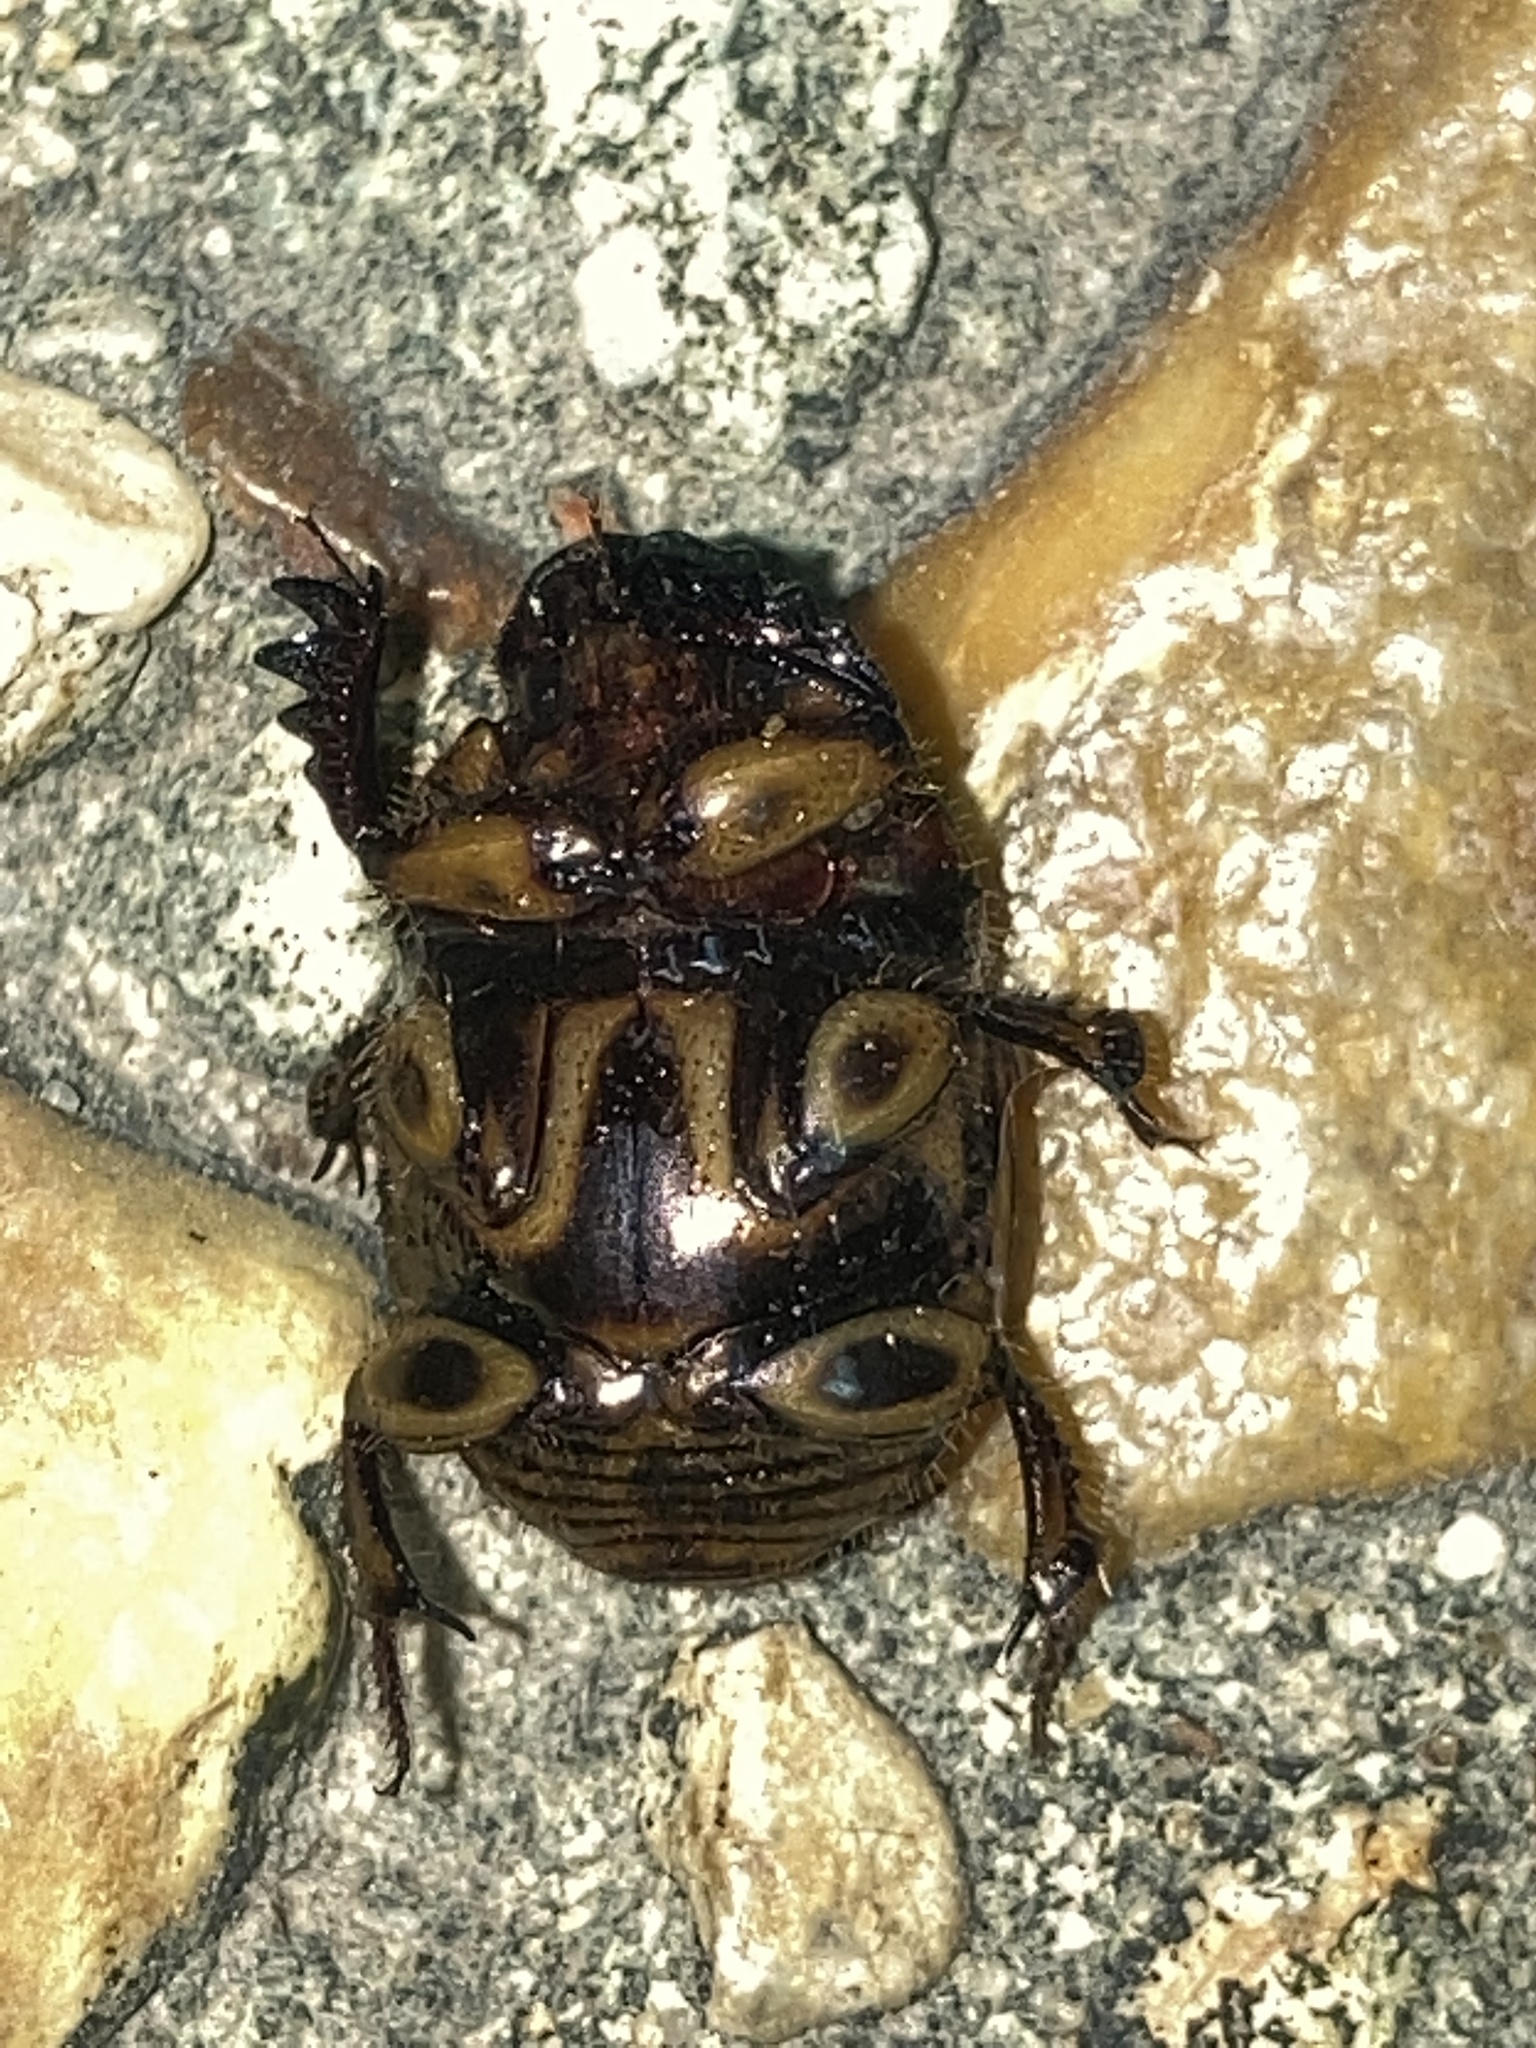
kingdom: Animalia
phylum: Arthropoda
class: Insecta
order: Coleoptera
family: Scarabaeidae
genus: Digitonthophagus
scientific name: Digitonthophagus gazella
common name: Brown dung beetle
